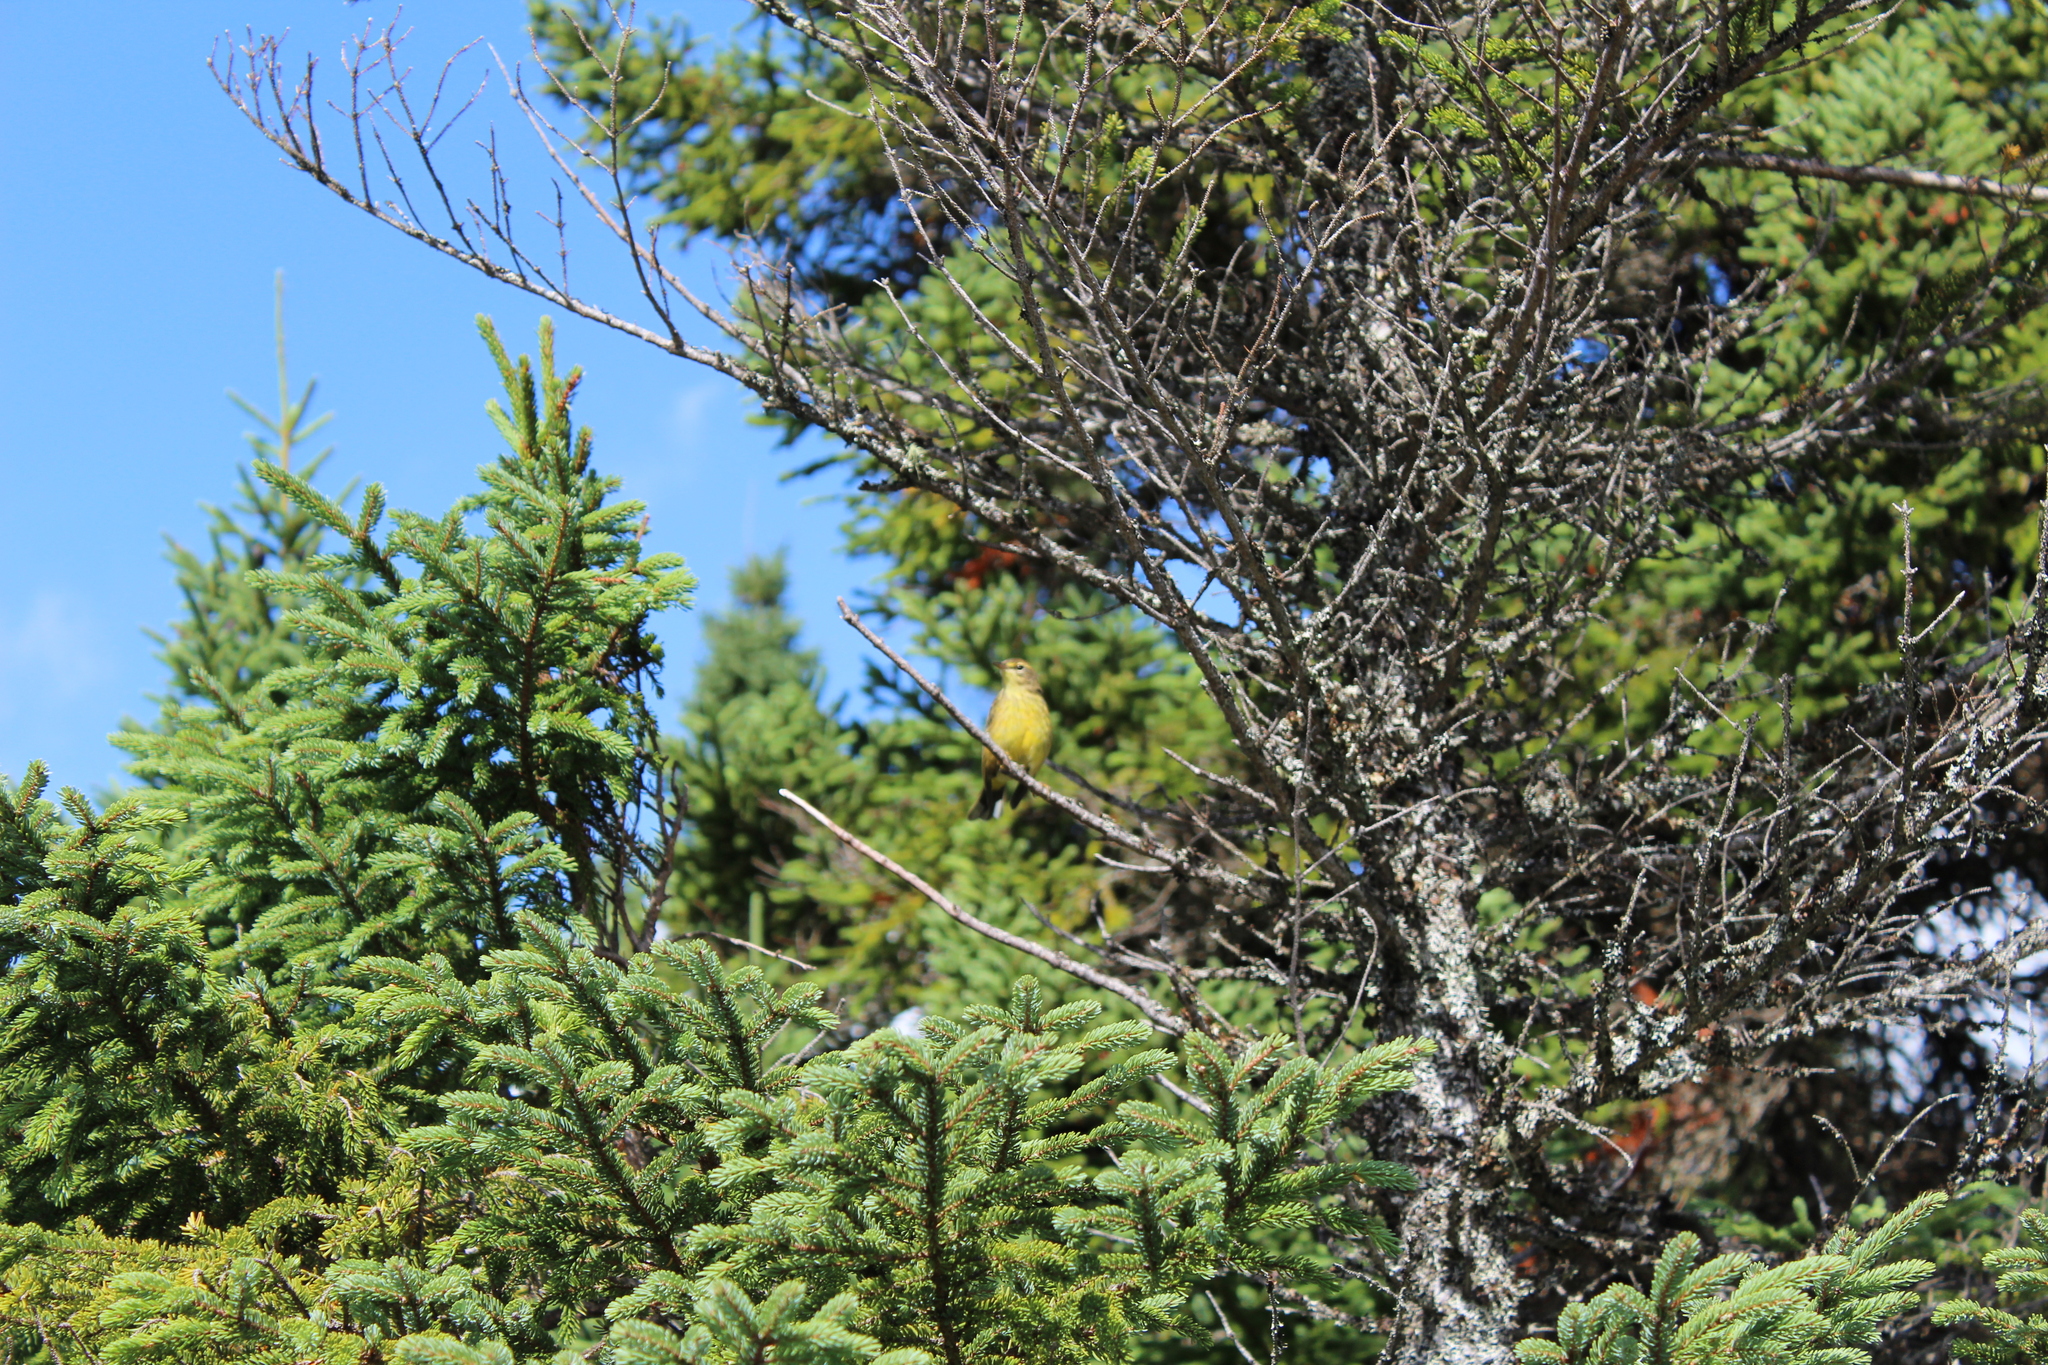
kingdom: Animalia
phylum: Chordata
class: Aves
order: Passeriformes
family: Parulidae
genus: Setophaga
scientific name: Setophaga palmarum
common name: Palm warbler
